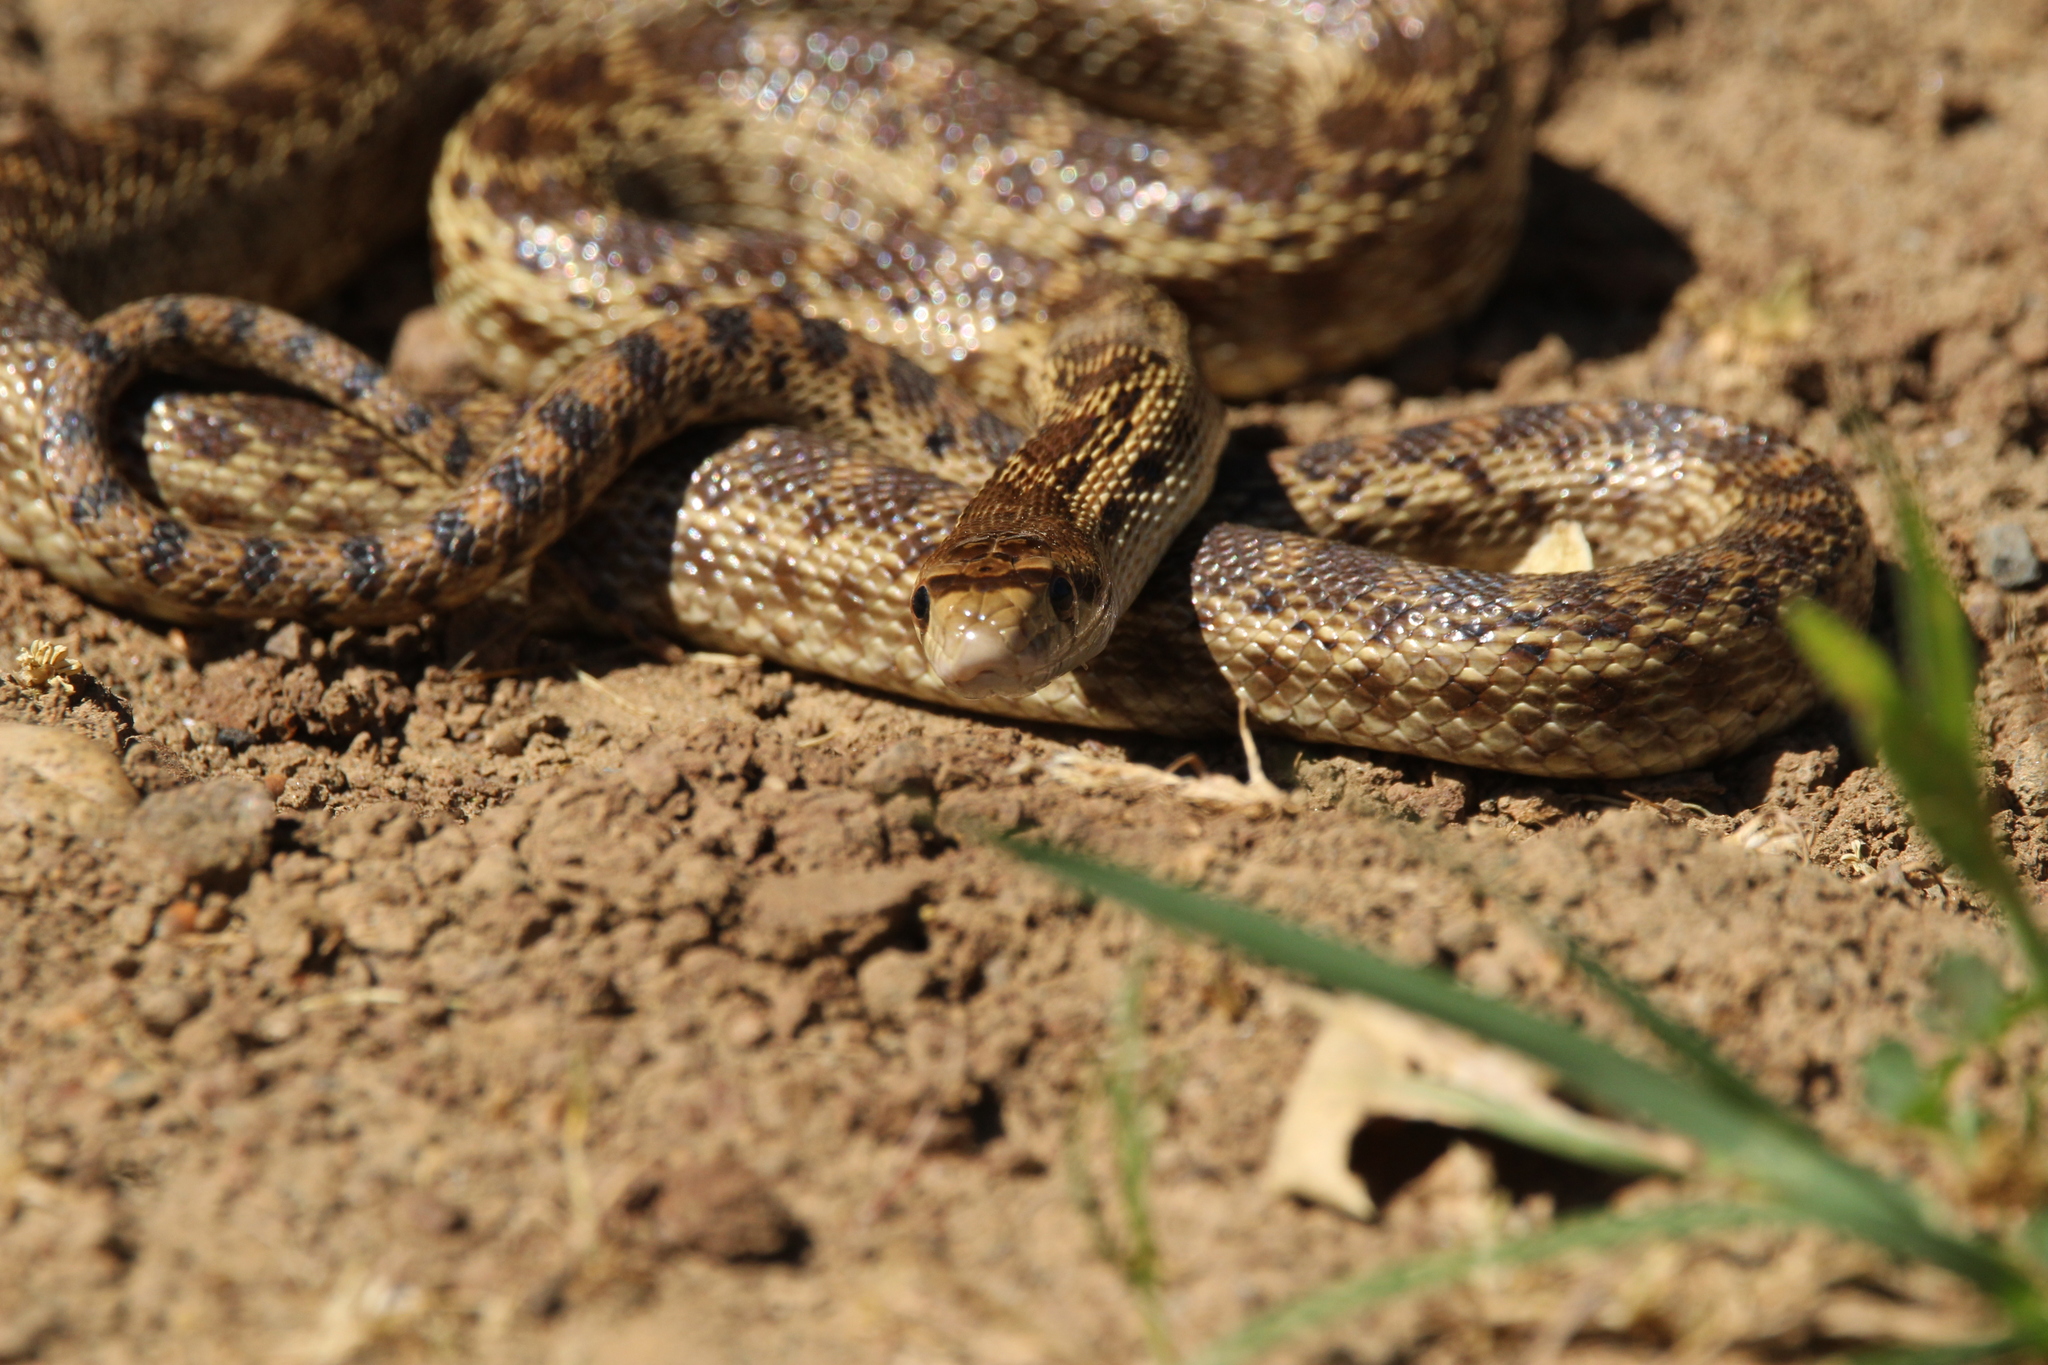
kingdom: Animalia
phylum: Chordata
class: Squamata
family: Colubridae
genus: Pituophis
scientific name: Pituophis catenifer
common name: Gopher snake
